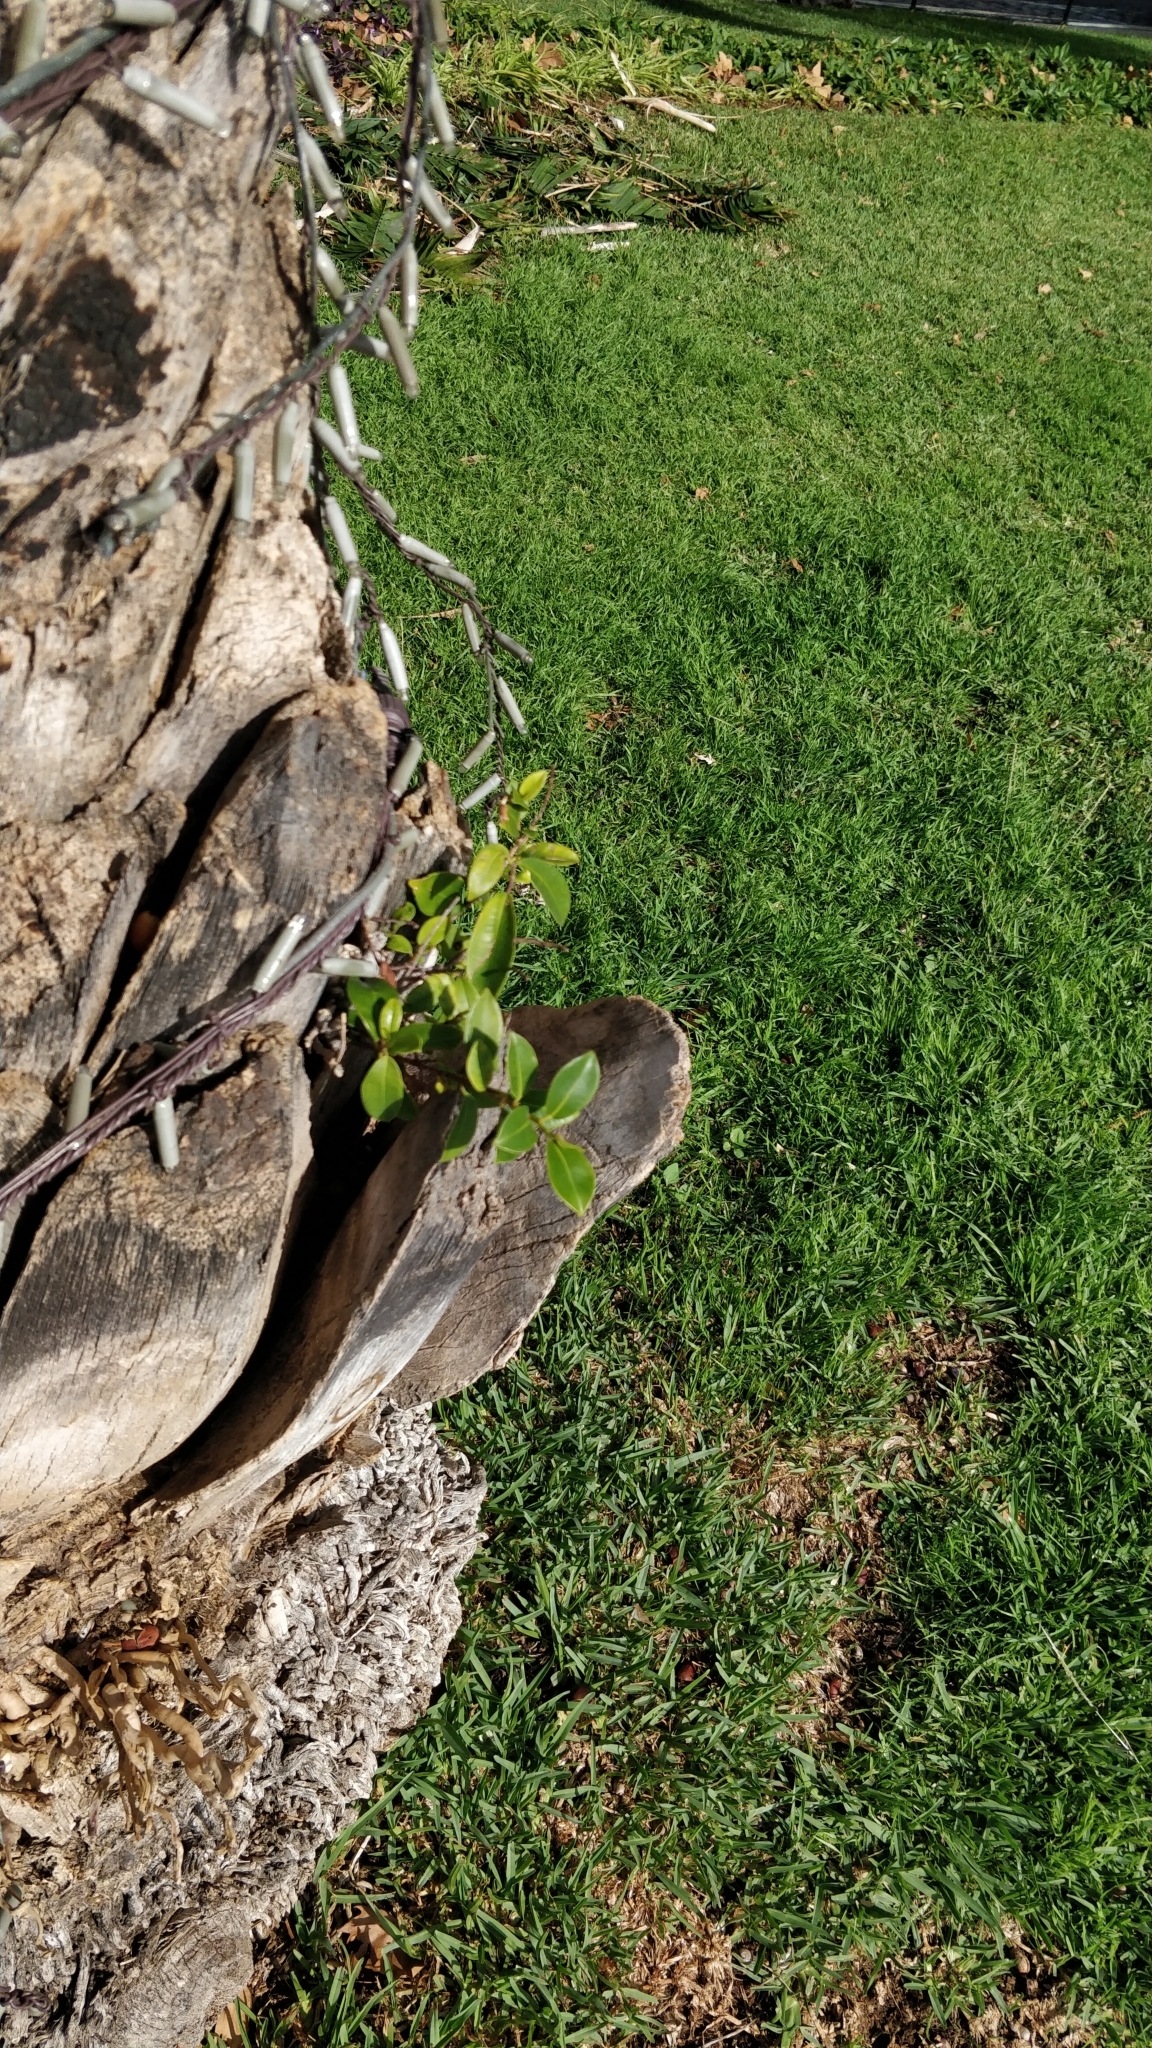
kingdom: Plantae
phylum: Tracheophyta
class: Magnoliopsida
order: Rosales
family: Moraceae
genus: Ficus
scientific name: Ficus benjamina
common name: Weeping fig
